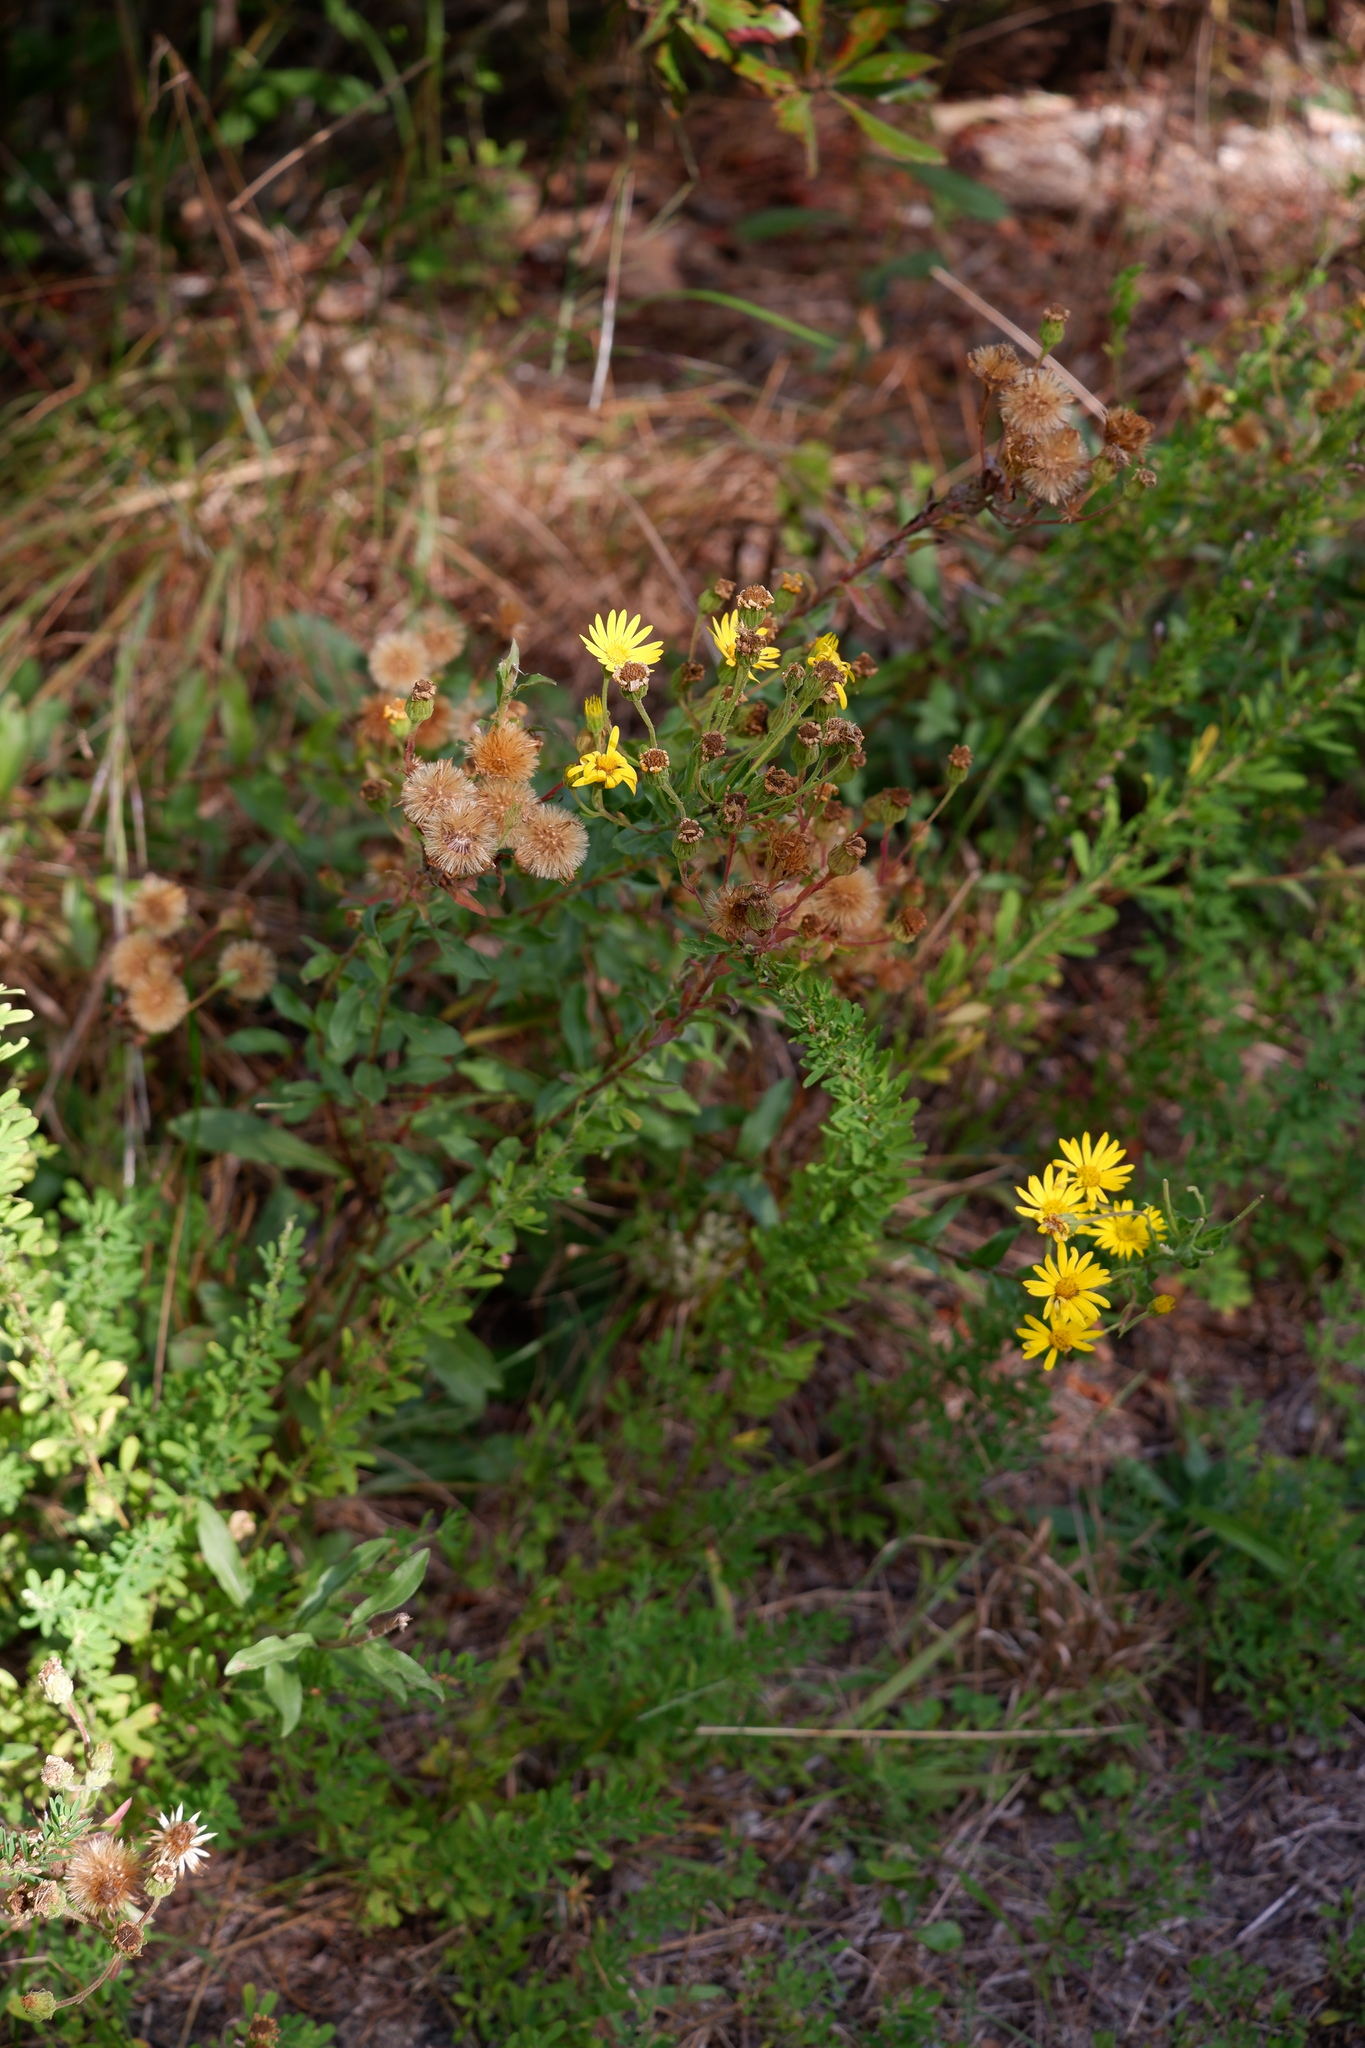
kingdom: Plantae
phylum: Tracheophyta
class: Magnoliopsida
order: Asterales
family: Asteraceae
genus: Heterotheca
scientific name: Heterotheca subaxillaris
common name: Camphorweed
